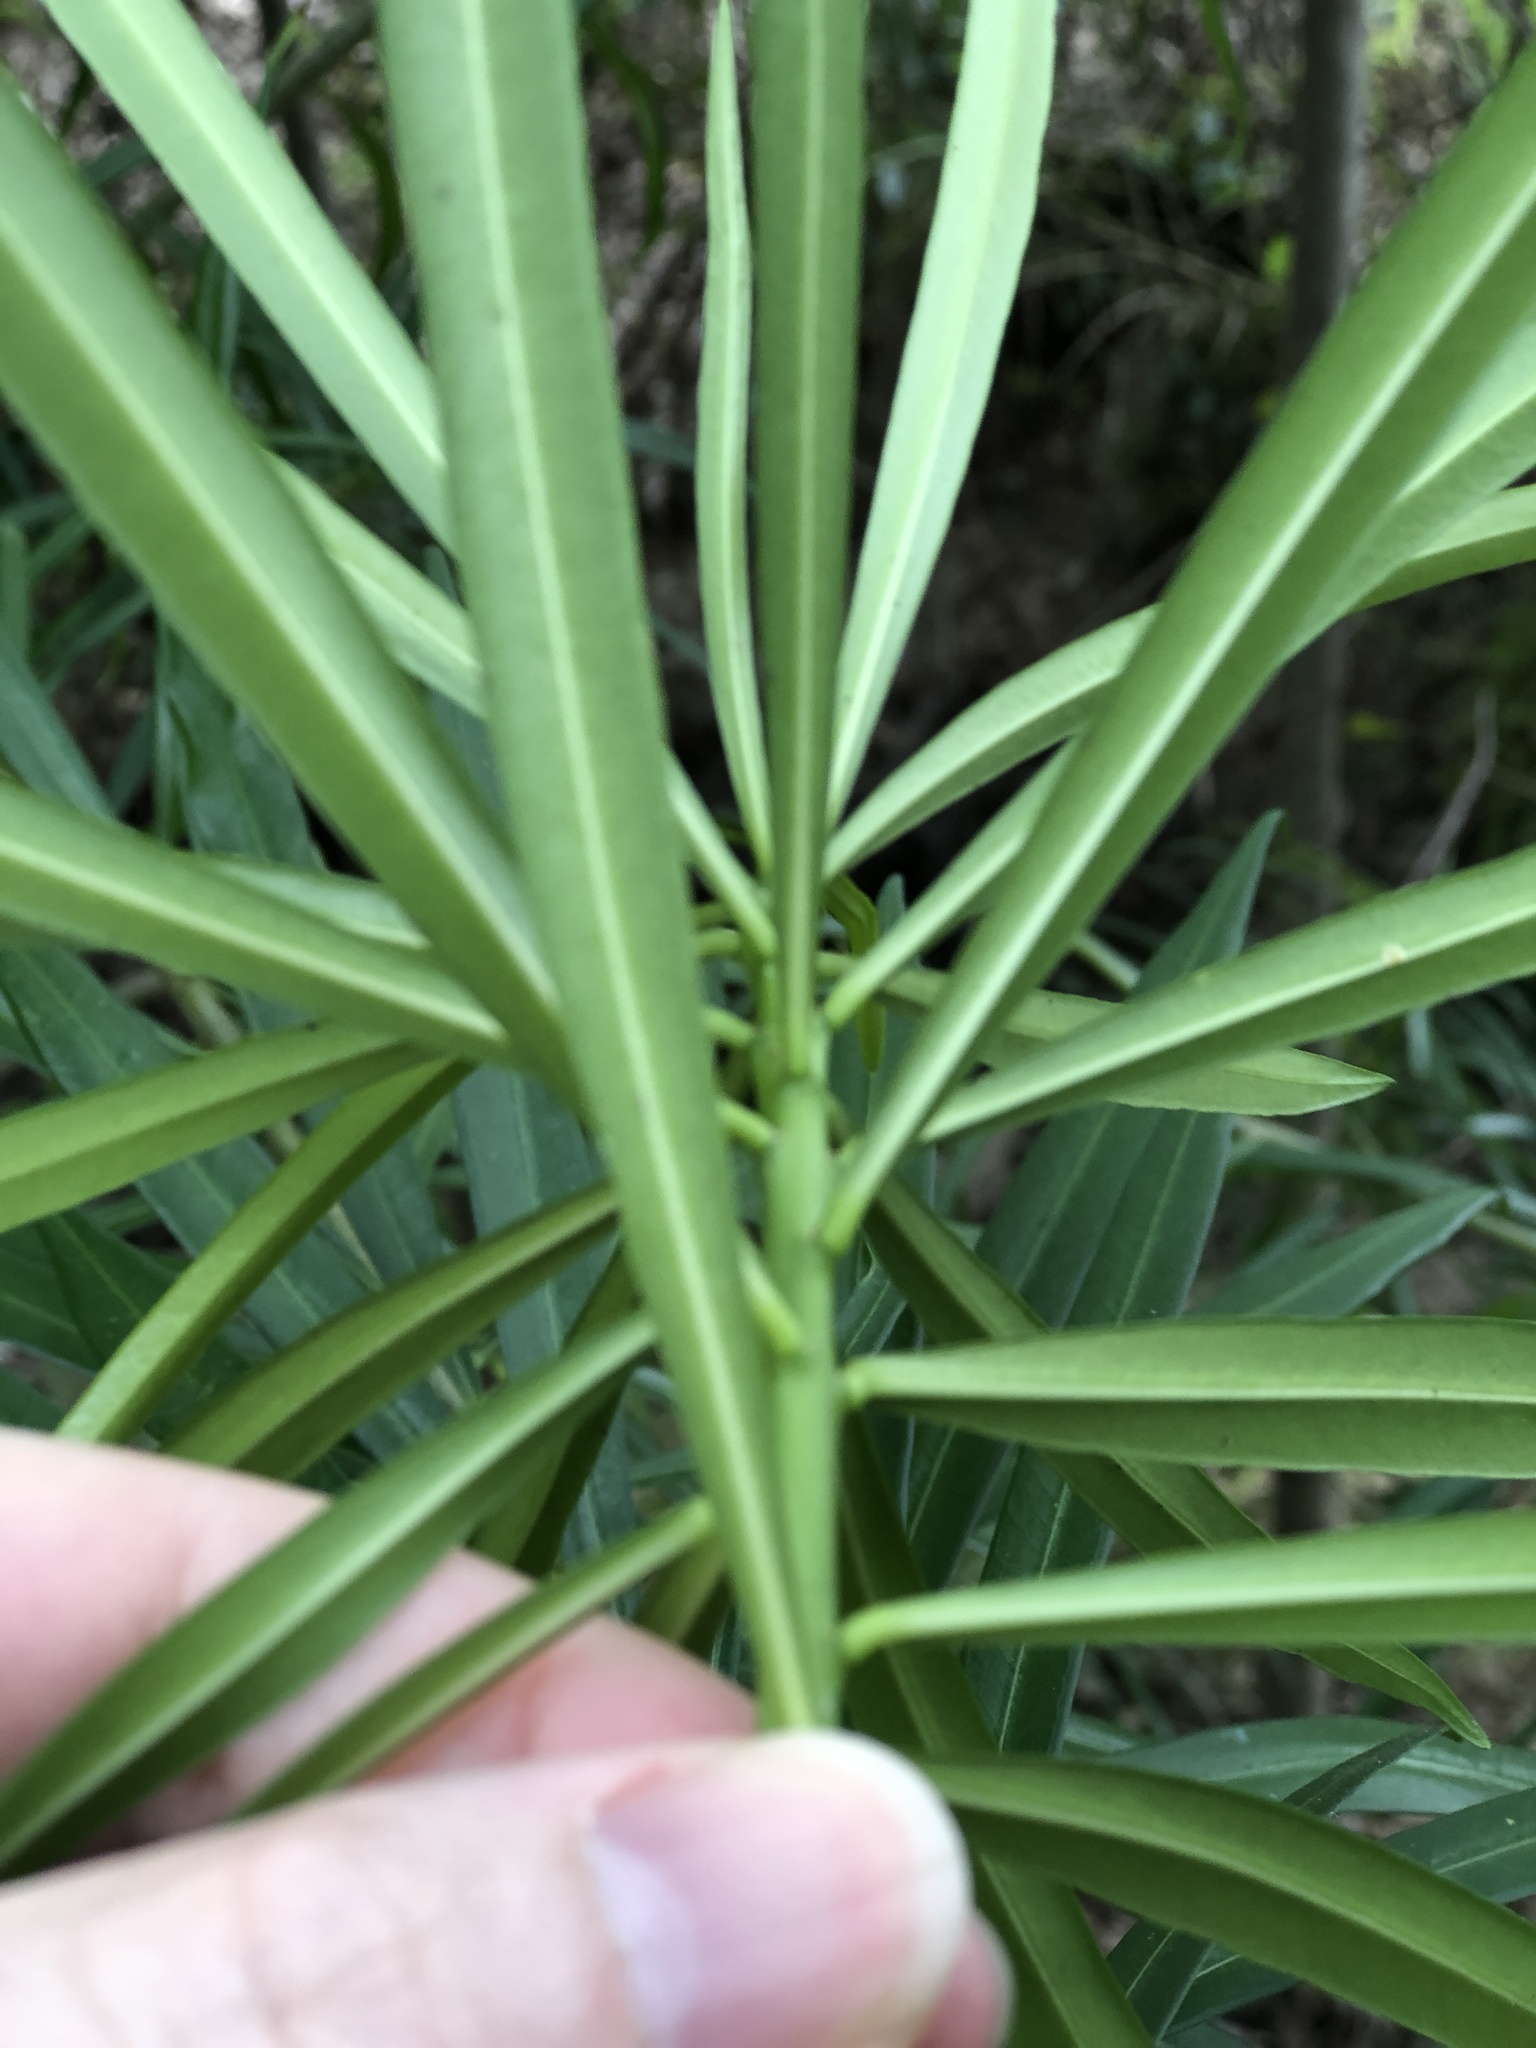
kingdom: Plantae
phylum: Tracheophyta
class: Magnoliopsida
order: Gentianales
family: Apocynaceae
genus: Cascabela
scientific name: Cascabela thevetia
